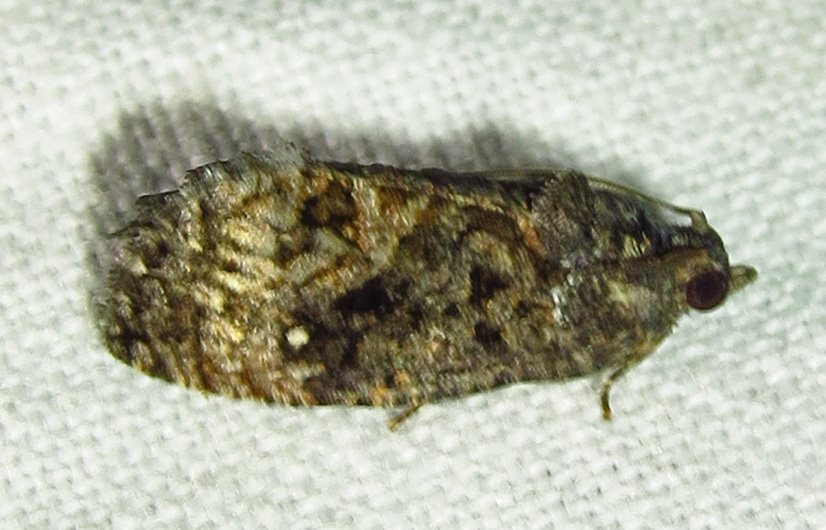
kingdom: Animalia
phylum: Arthropoda
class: Insecta
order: Lepidoptera
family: Tortricidae
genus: Gymnandrosoma
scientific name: Gymnandrosoma punctidiscanum
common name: Dotted ecdytolopha moth
